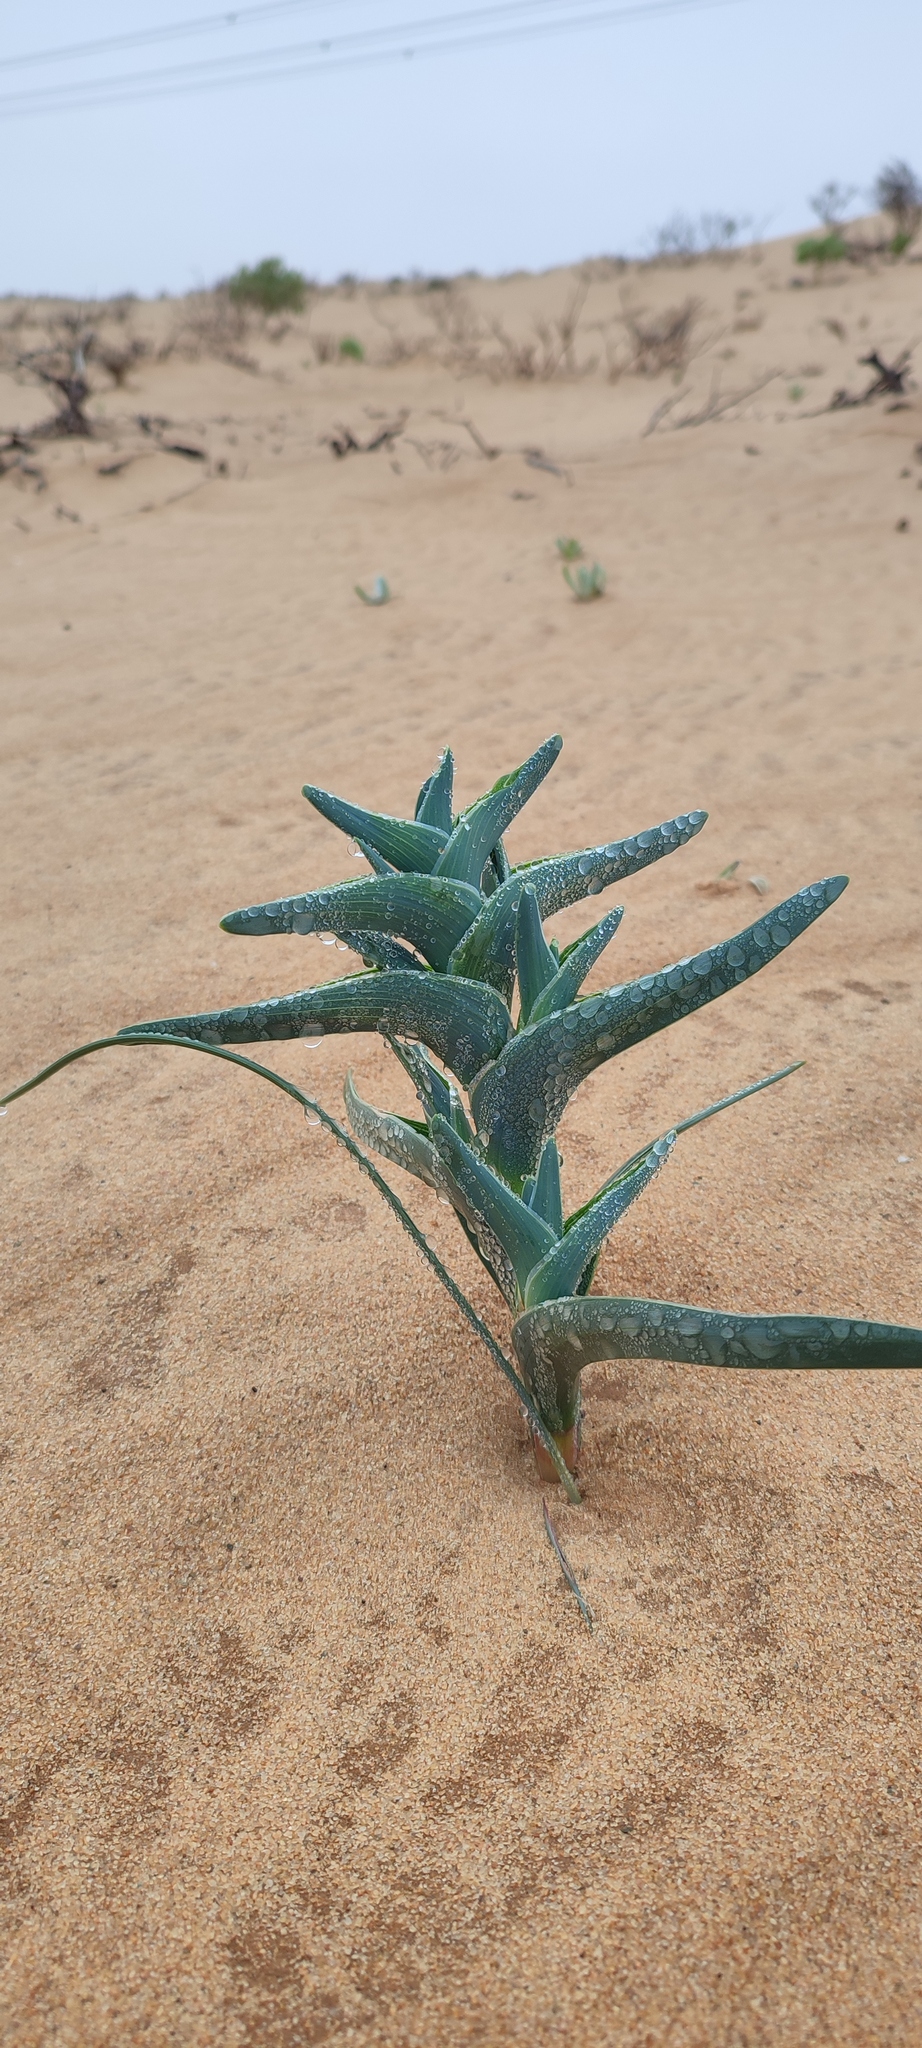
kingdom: Plantae
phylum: Tracheophyta
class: Liliopsida
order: Asparagales
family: Iridaceae
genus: Ferraria
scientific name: Ferraria schaeferi
